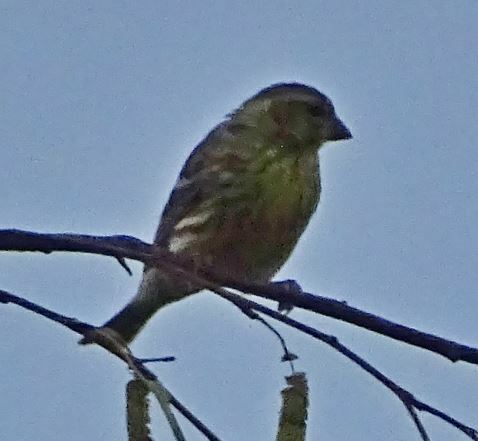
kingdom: Animalia
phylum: Chordata
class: Aves
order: Passeriformes
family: Fringillidae
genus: Serinus
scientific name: Serinus serinus
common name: European serin
